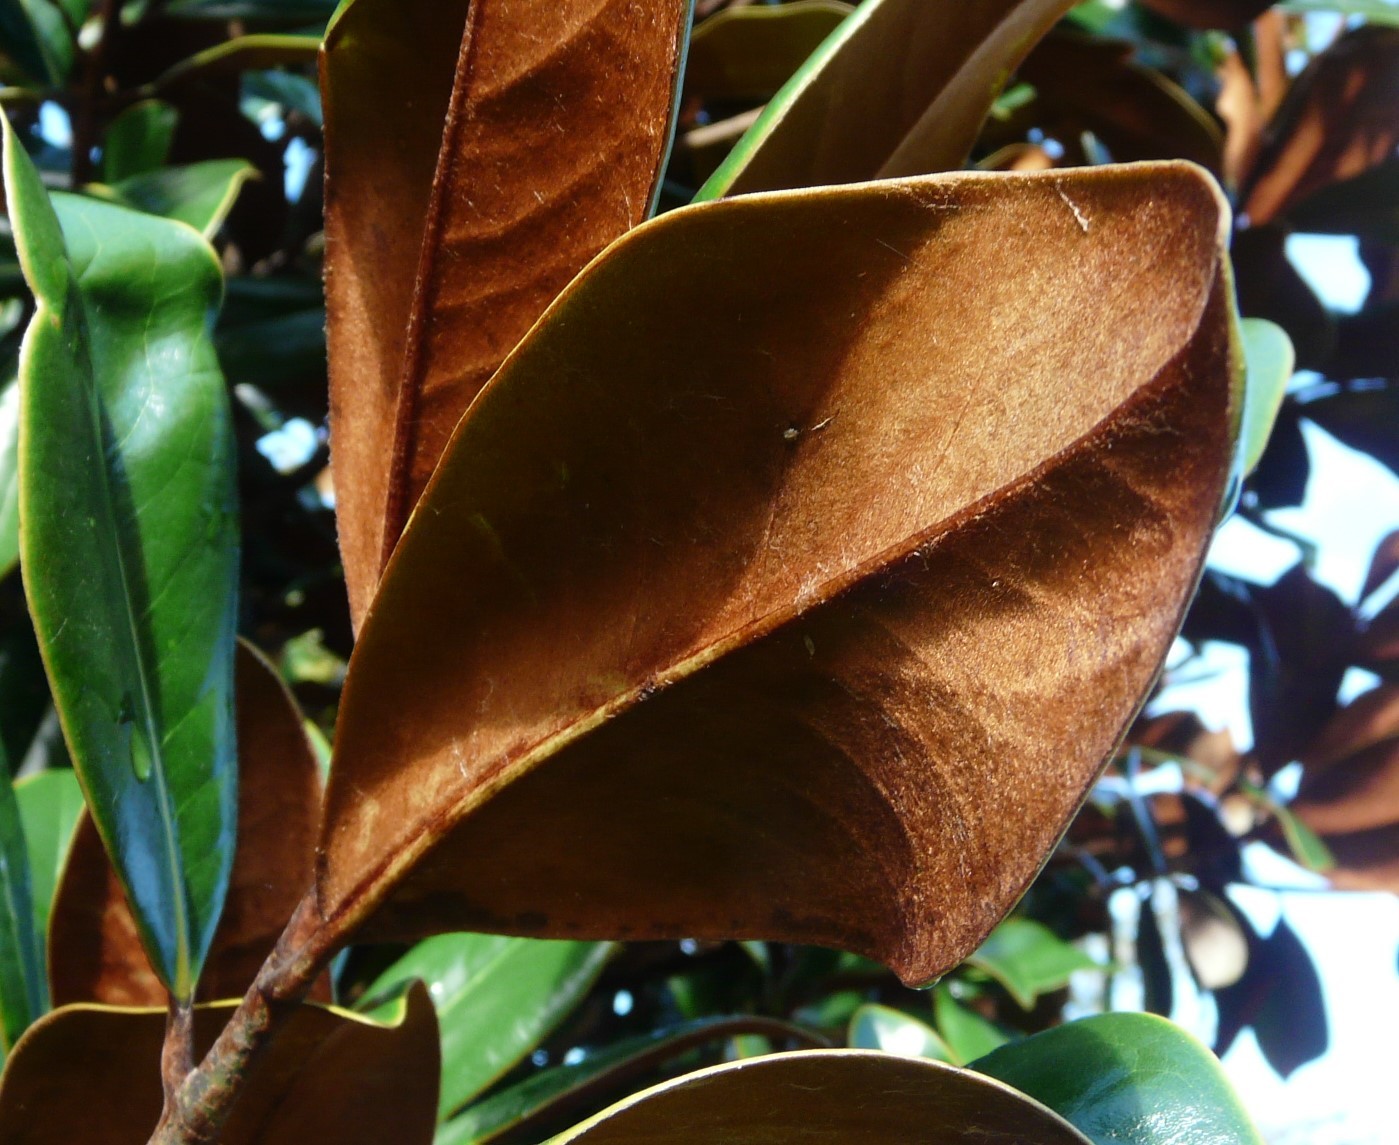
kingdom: Plantae
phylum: Tracheophyta
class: Magnoliopsida
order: Magnoliales
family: Magnoliaceae
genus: Magnolia
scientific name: Magnolia grandiflora
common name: Southern magnolia
